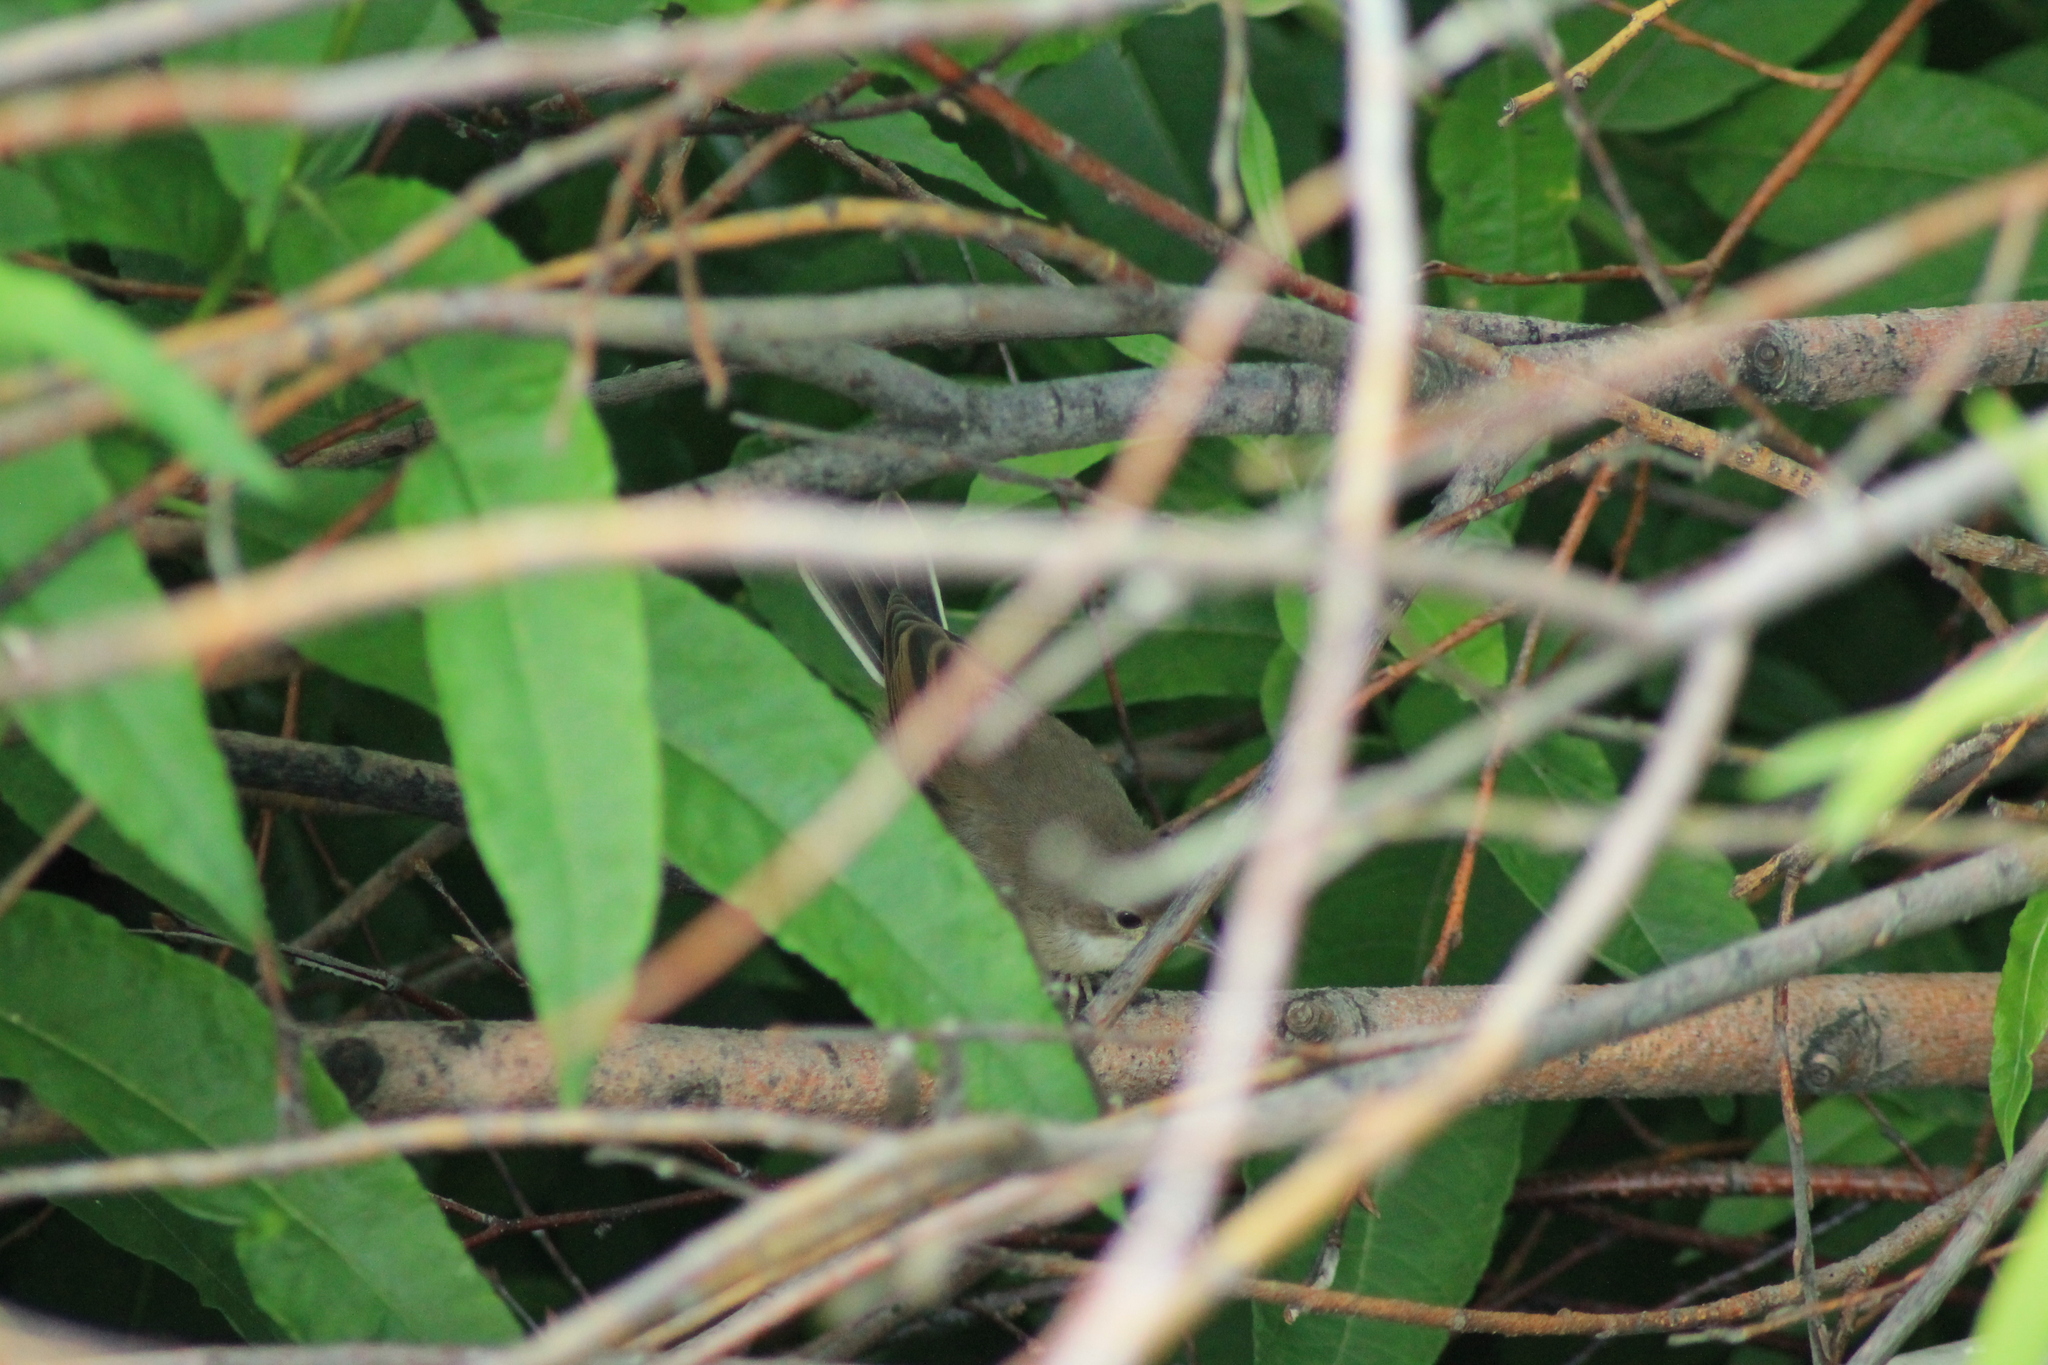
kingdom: Animalia
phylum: Chordata
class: Aves
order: Passeriformes
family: Sylviidae
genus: Sylvia
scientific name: Sylvia communis
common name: Common whitethroat
